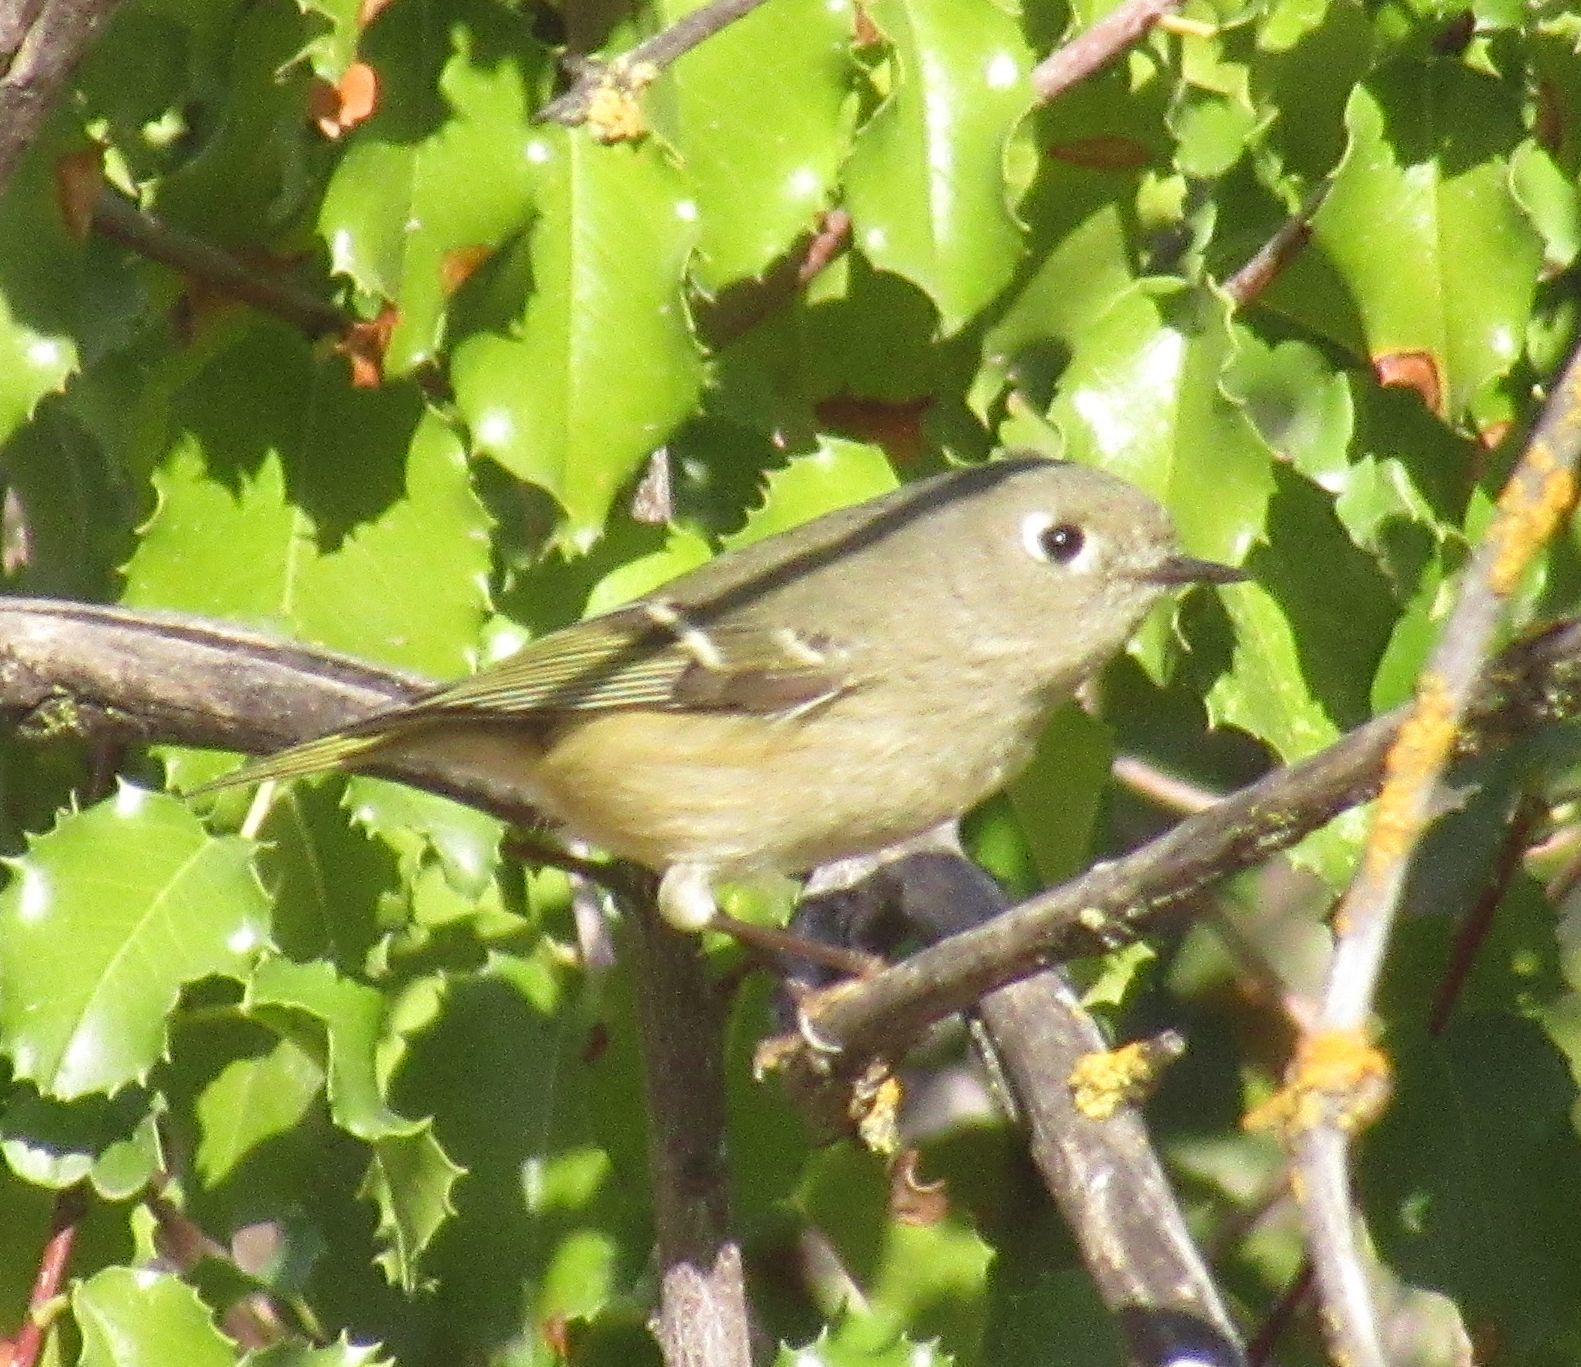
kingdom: Animalia
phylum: Chordata
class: Aves
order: Passeriformes
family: Regulidae
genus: Regulus
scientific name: Regulus calendula
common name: Ruby-crowned kinglet
